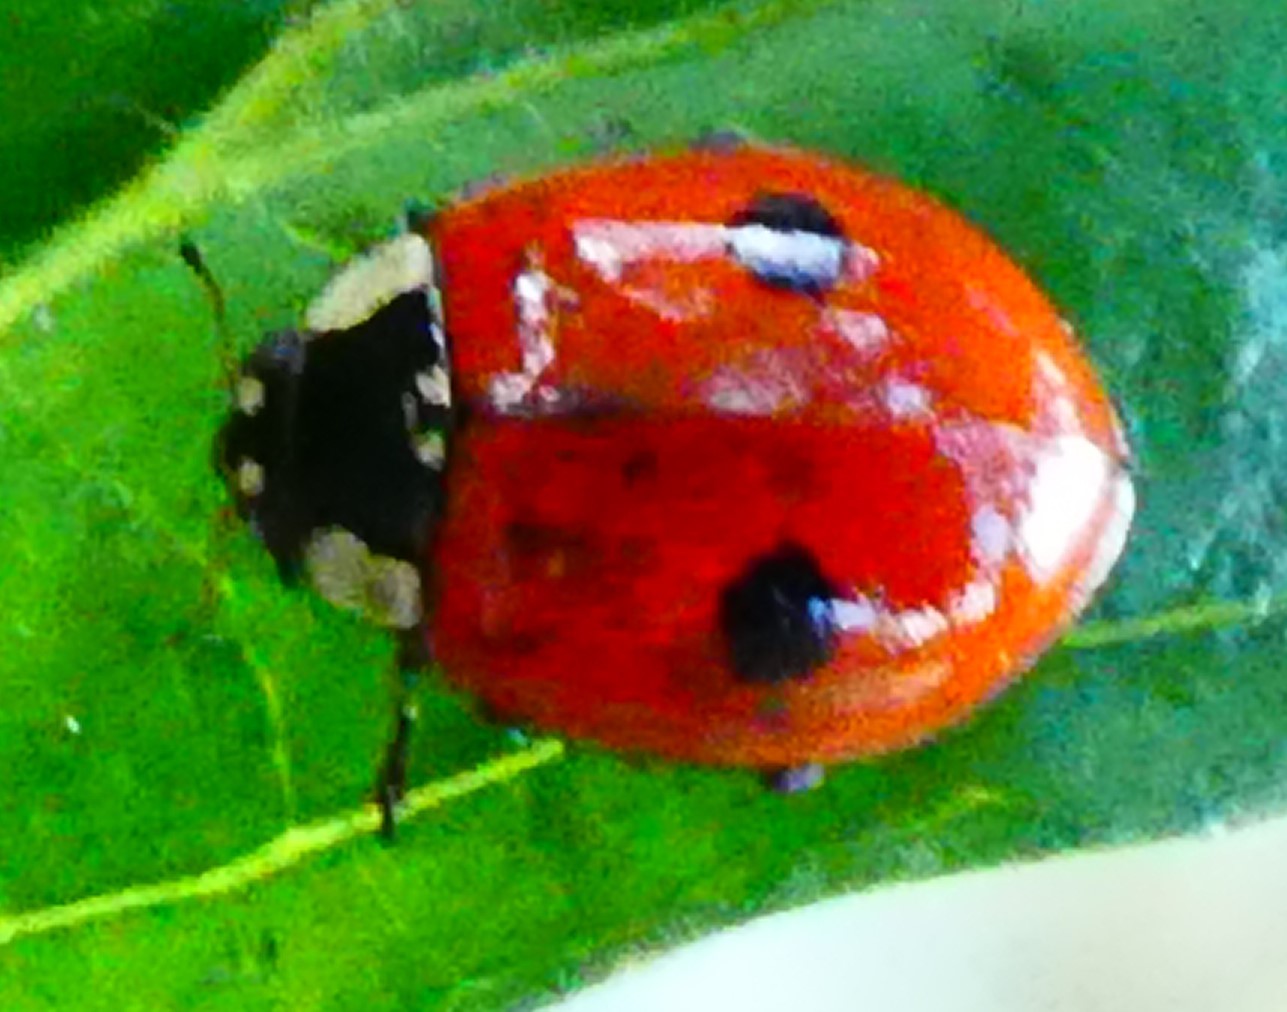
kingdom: Animalia
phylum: Arthropoda
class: Insecta
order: Coleoptera
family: Coccinellidae
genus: Adalia
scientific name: Adalia bipunctata
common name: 2-spot ladybird
